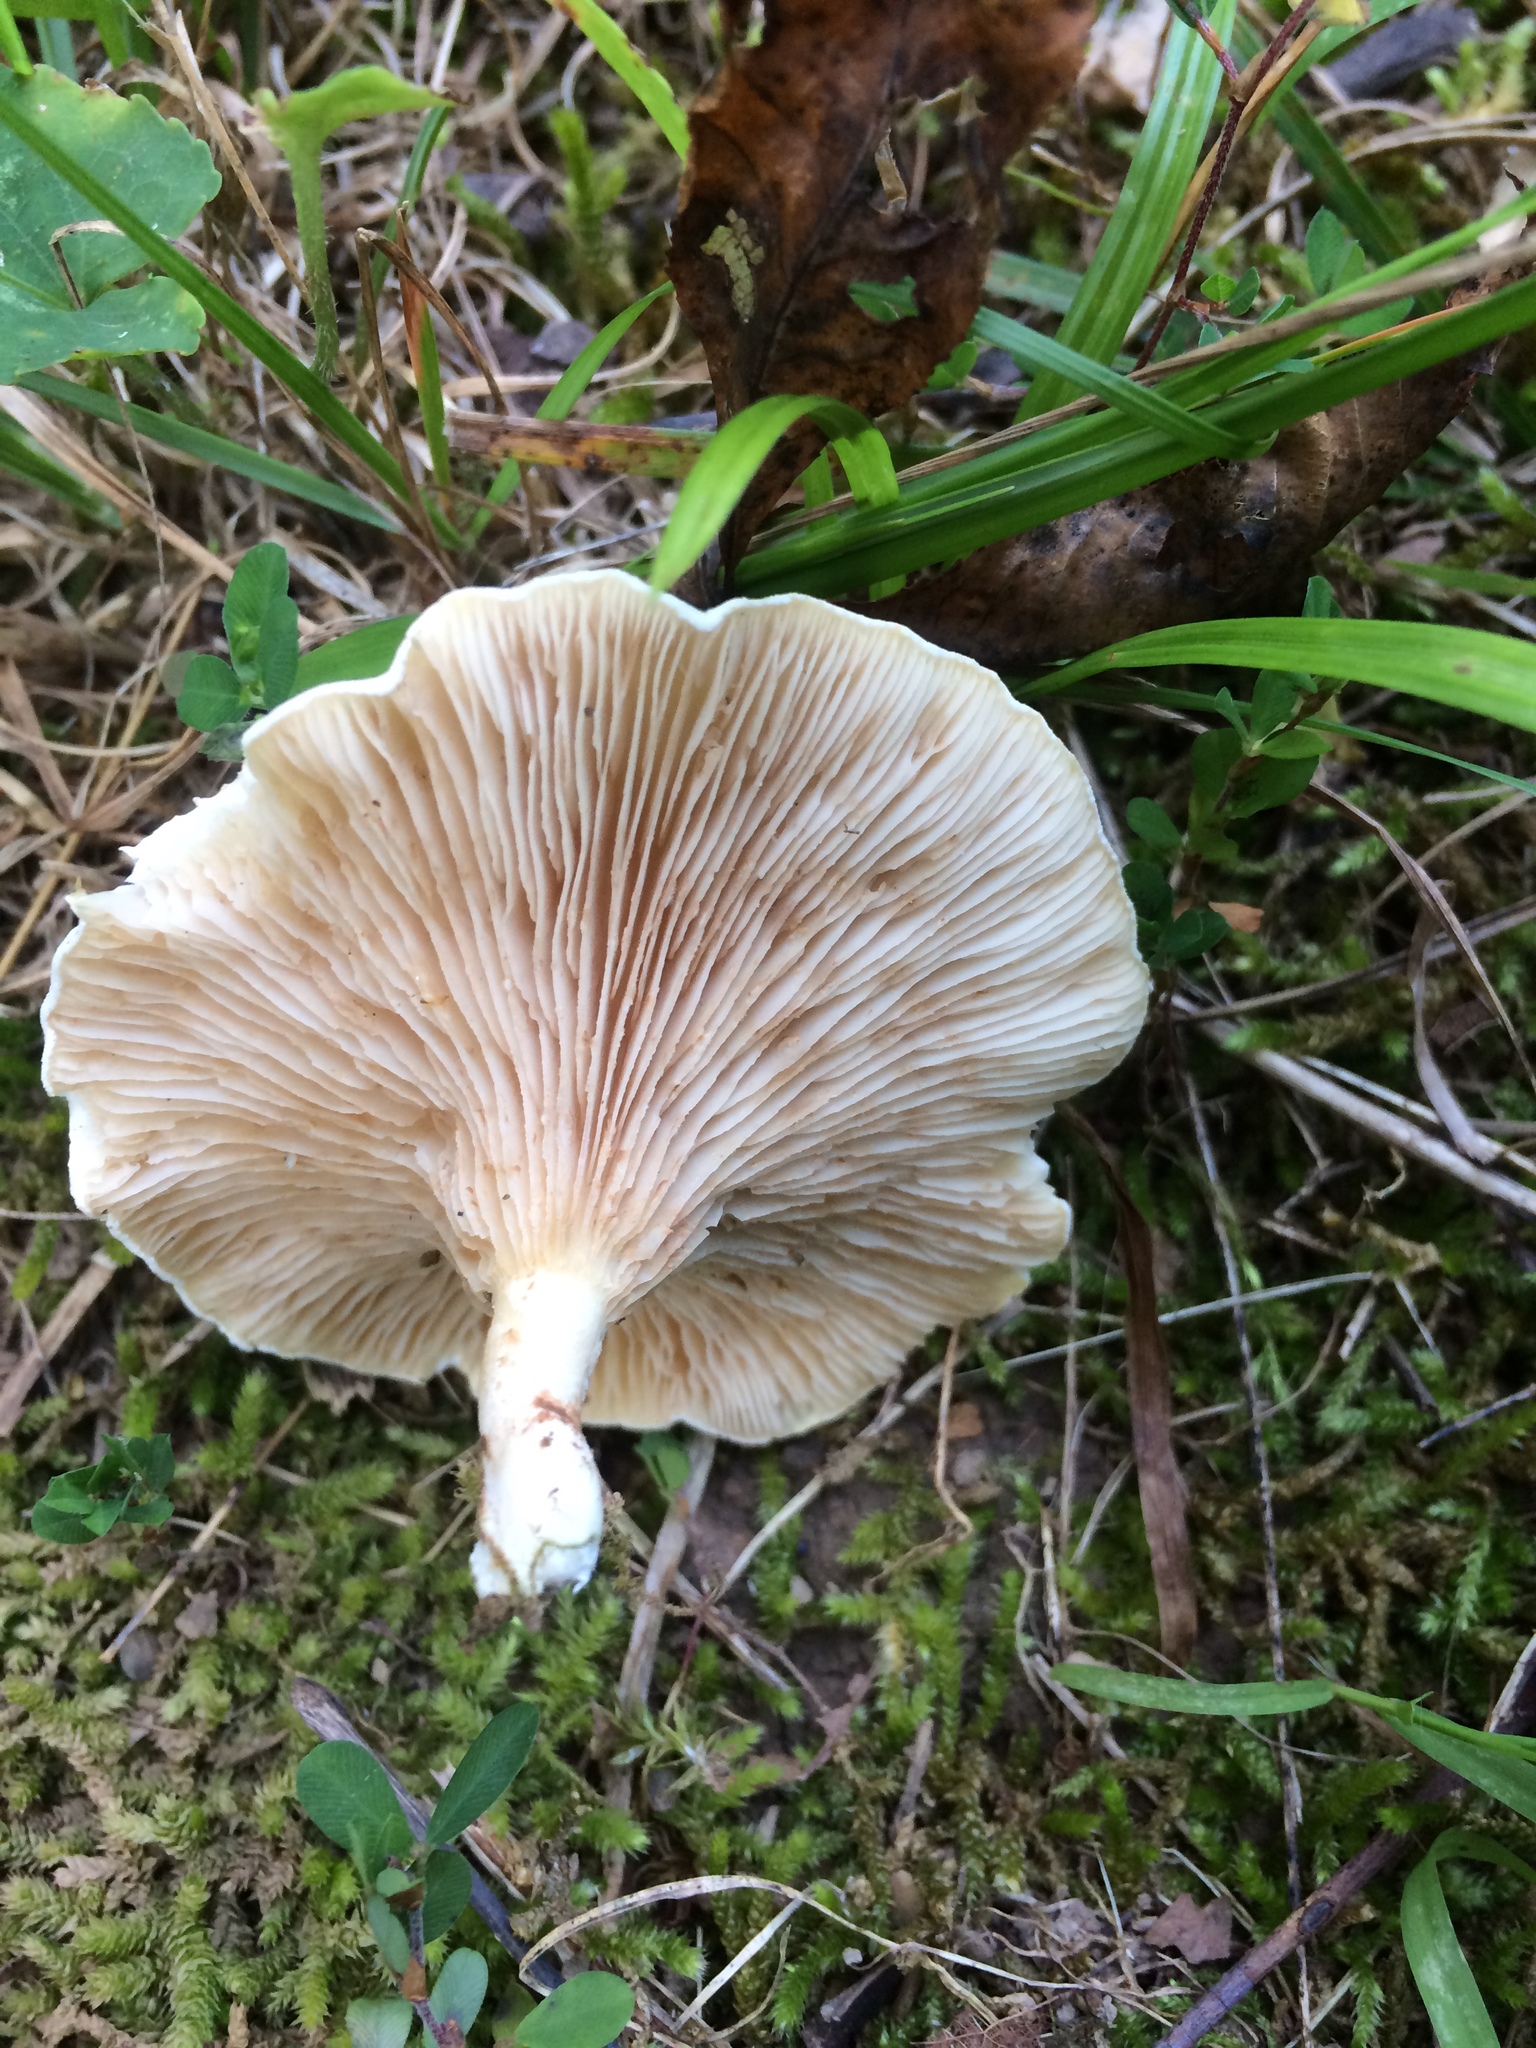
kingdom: Fungi
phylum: Basidiomycota
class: Agaricomycetes
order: Agaricales
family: Entolomataceae
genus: Clitopilus
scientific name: Clitopilus prunulus
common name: The miller
